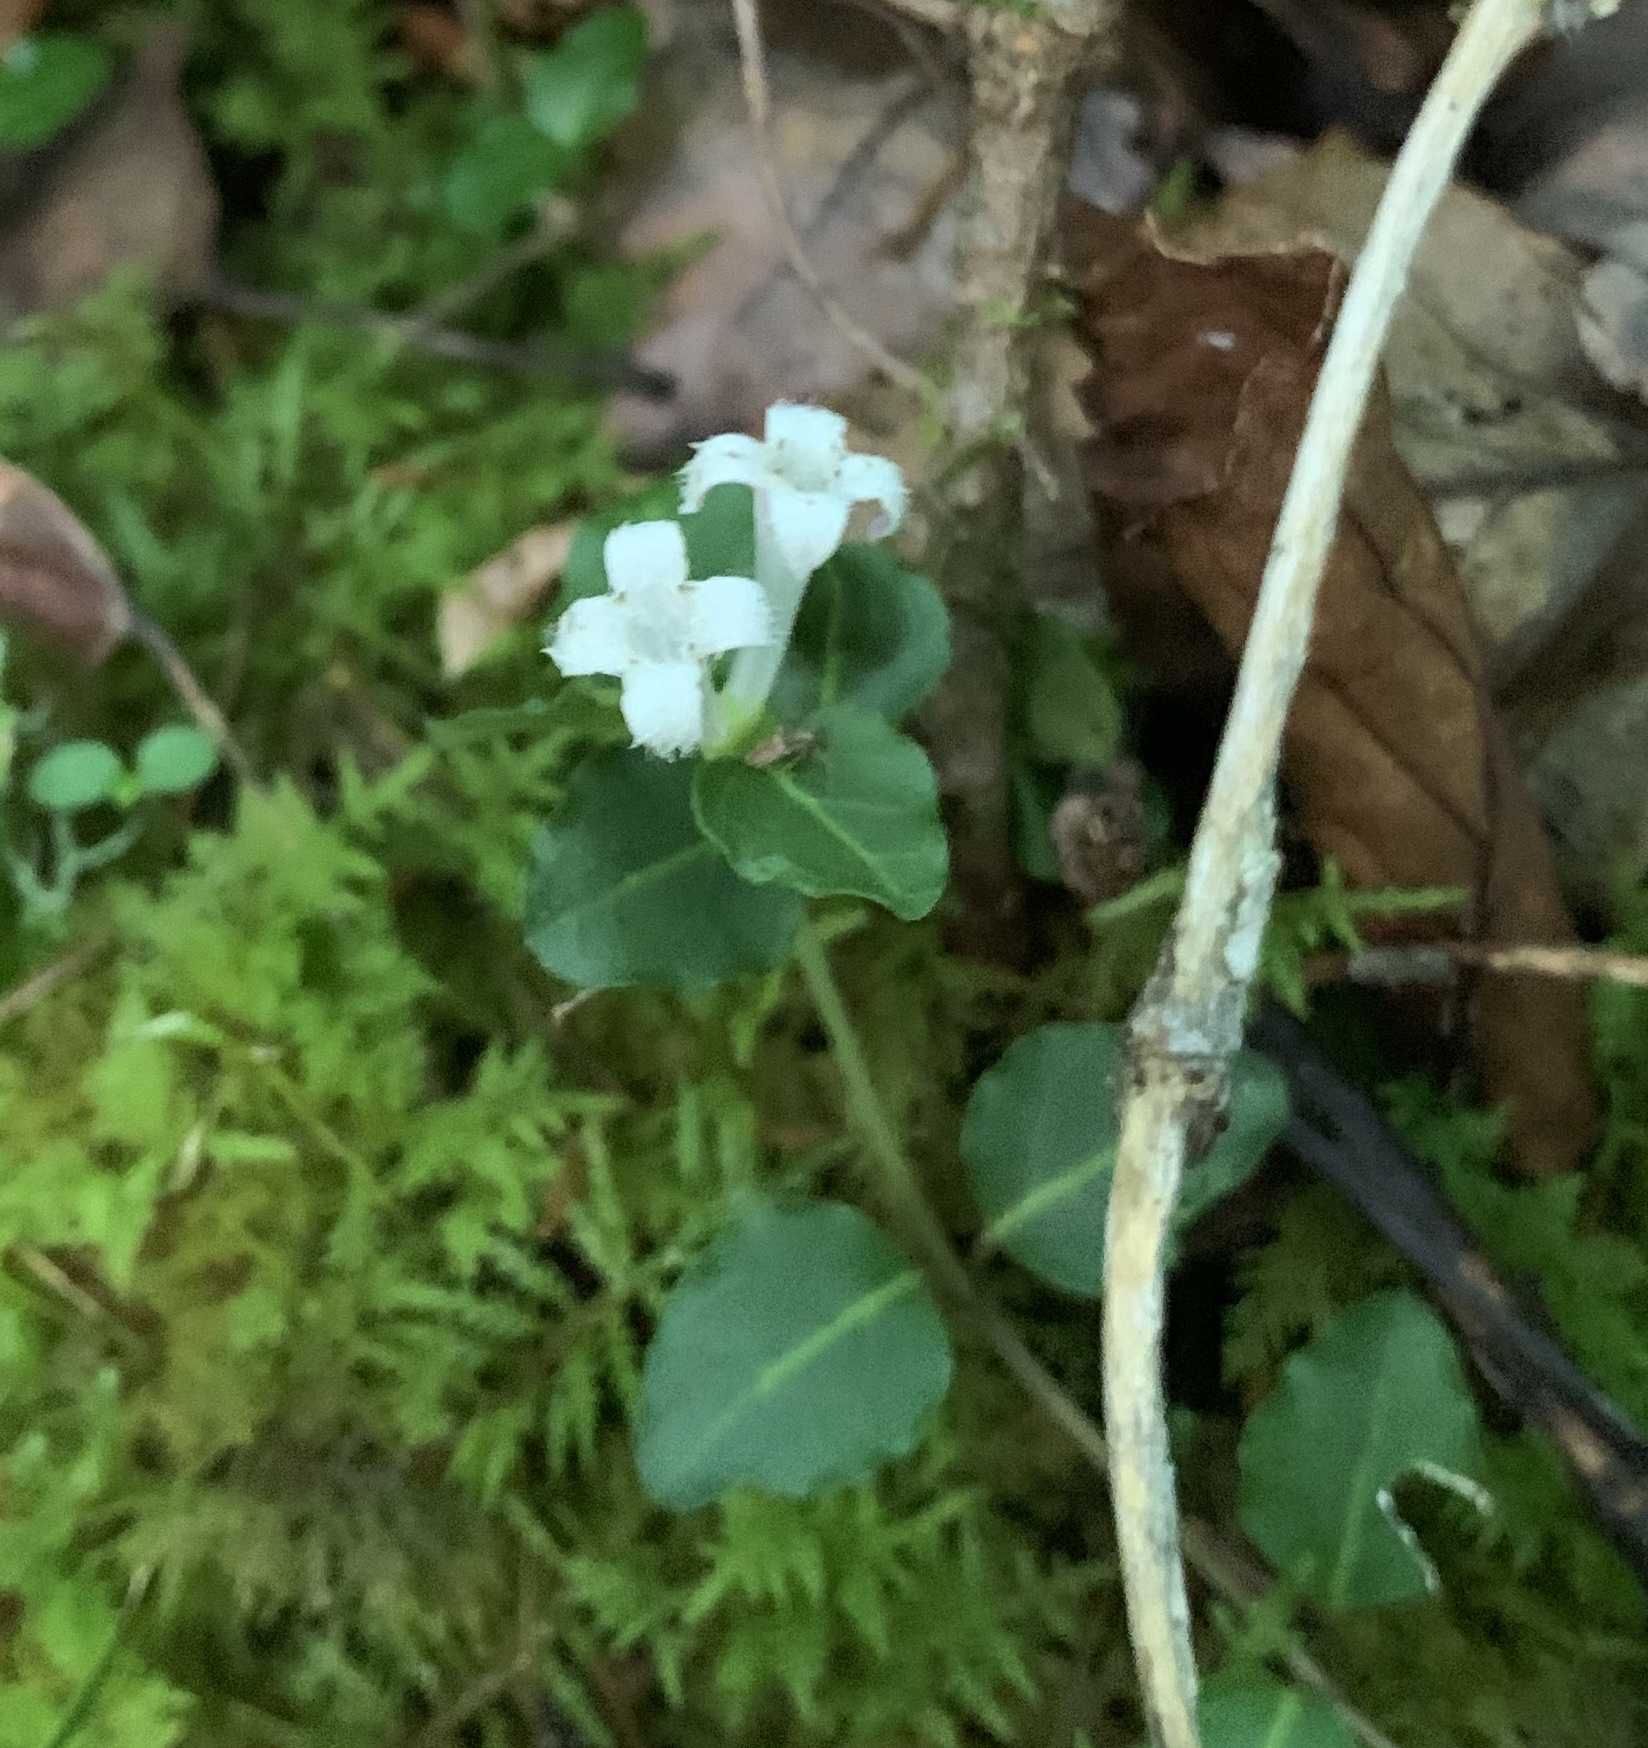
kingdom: Plantae
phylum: Tracheophyta
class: Magnoliopsida
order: Gentianales
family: Rubiaceae
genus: Mitchella
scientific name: Mitchella repens
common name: Partridge-berry
